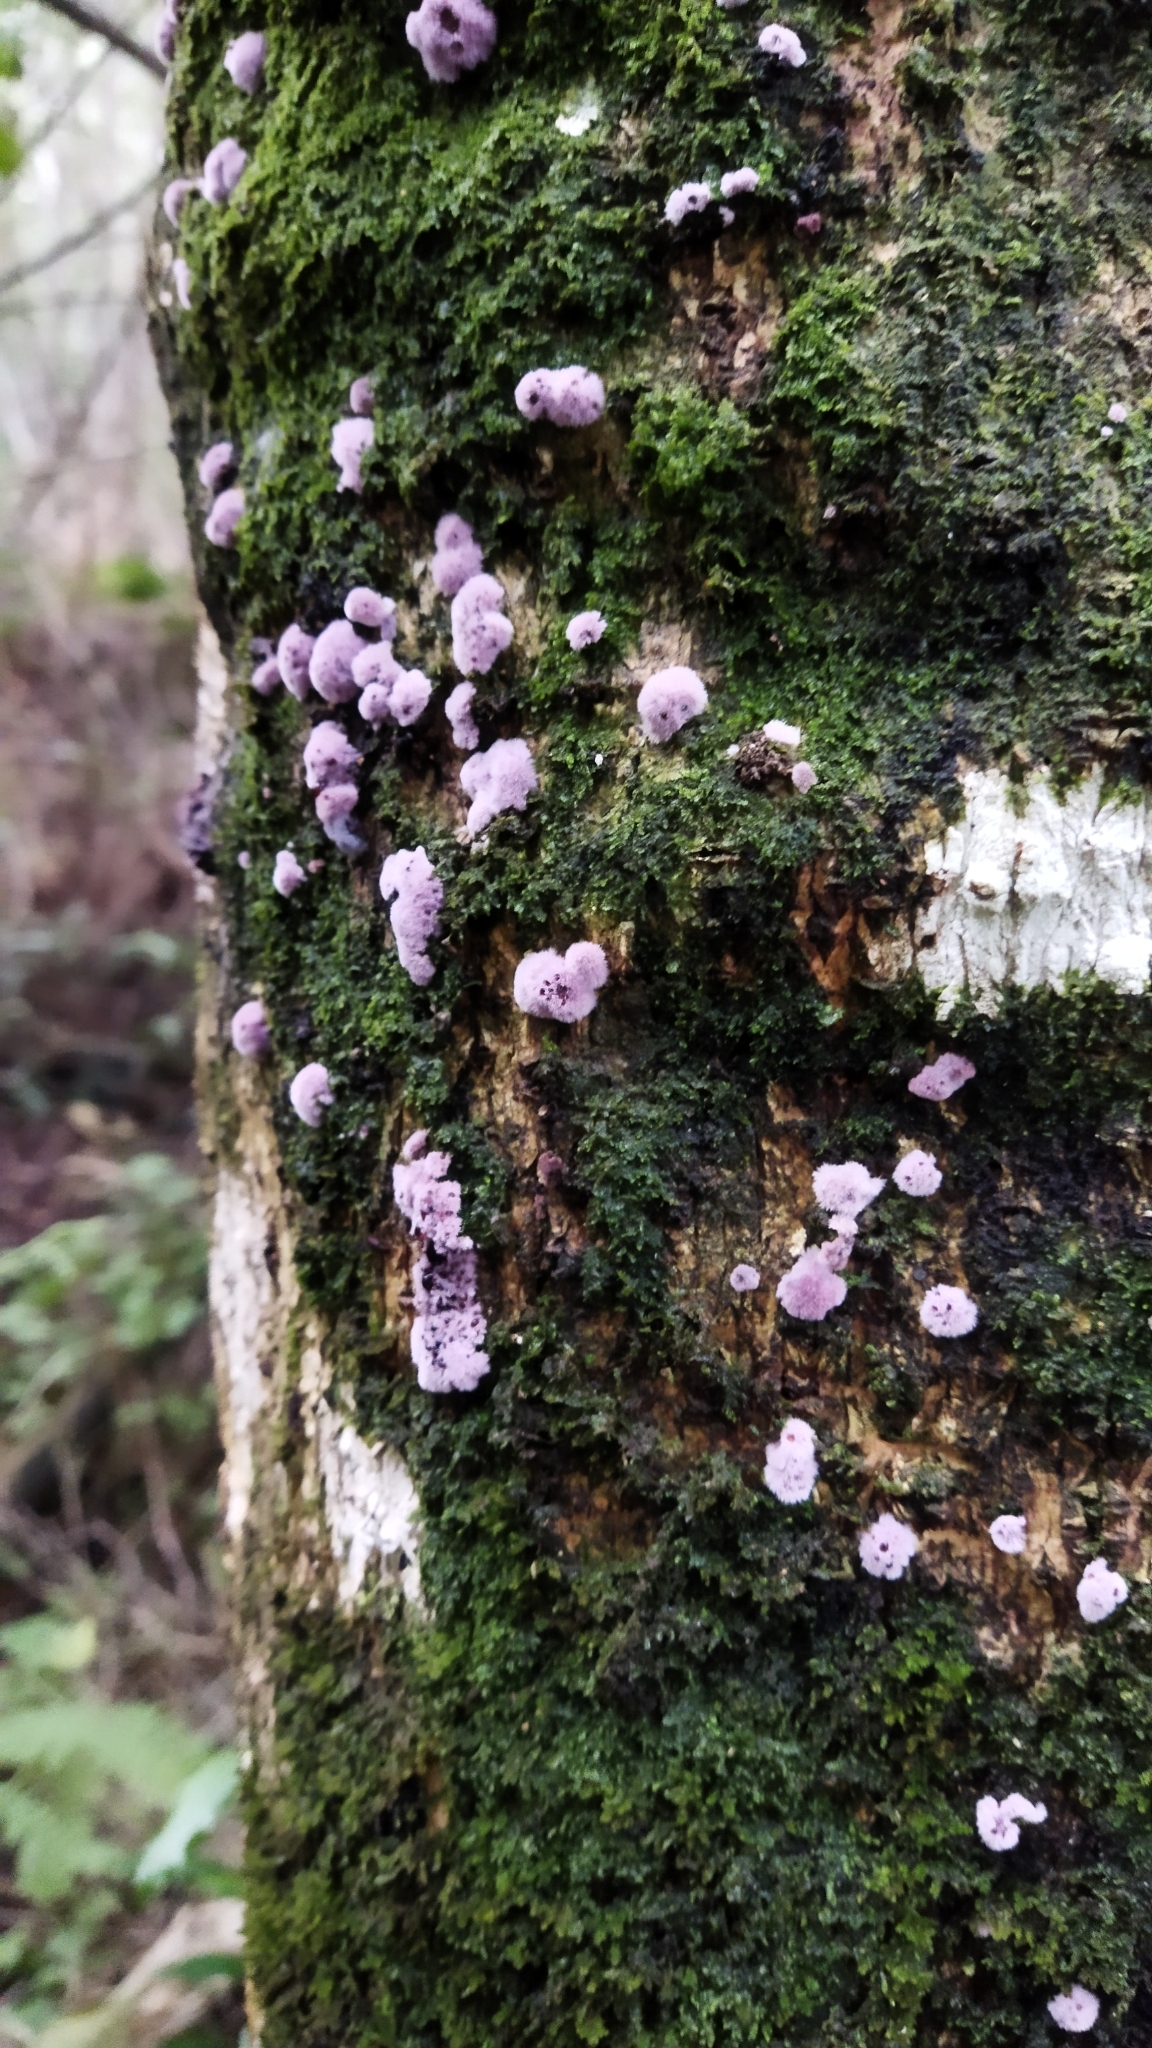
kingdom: Fungi
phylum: Basidiomycota
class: Agaricomycetes
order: Corticiales
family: Punctulariaceae
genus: Punctularia
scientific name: Punctularia atropurpurascens
